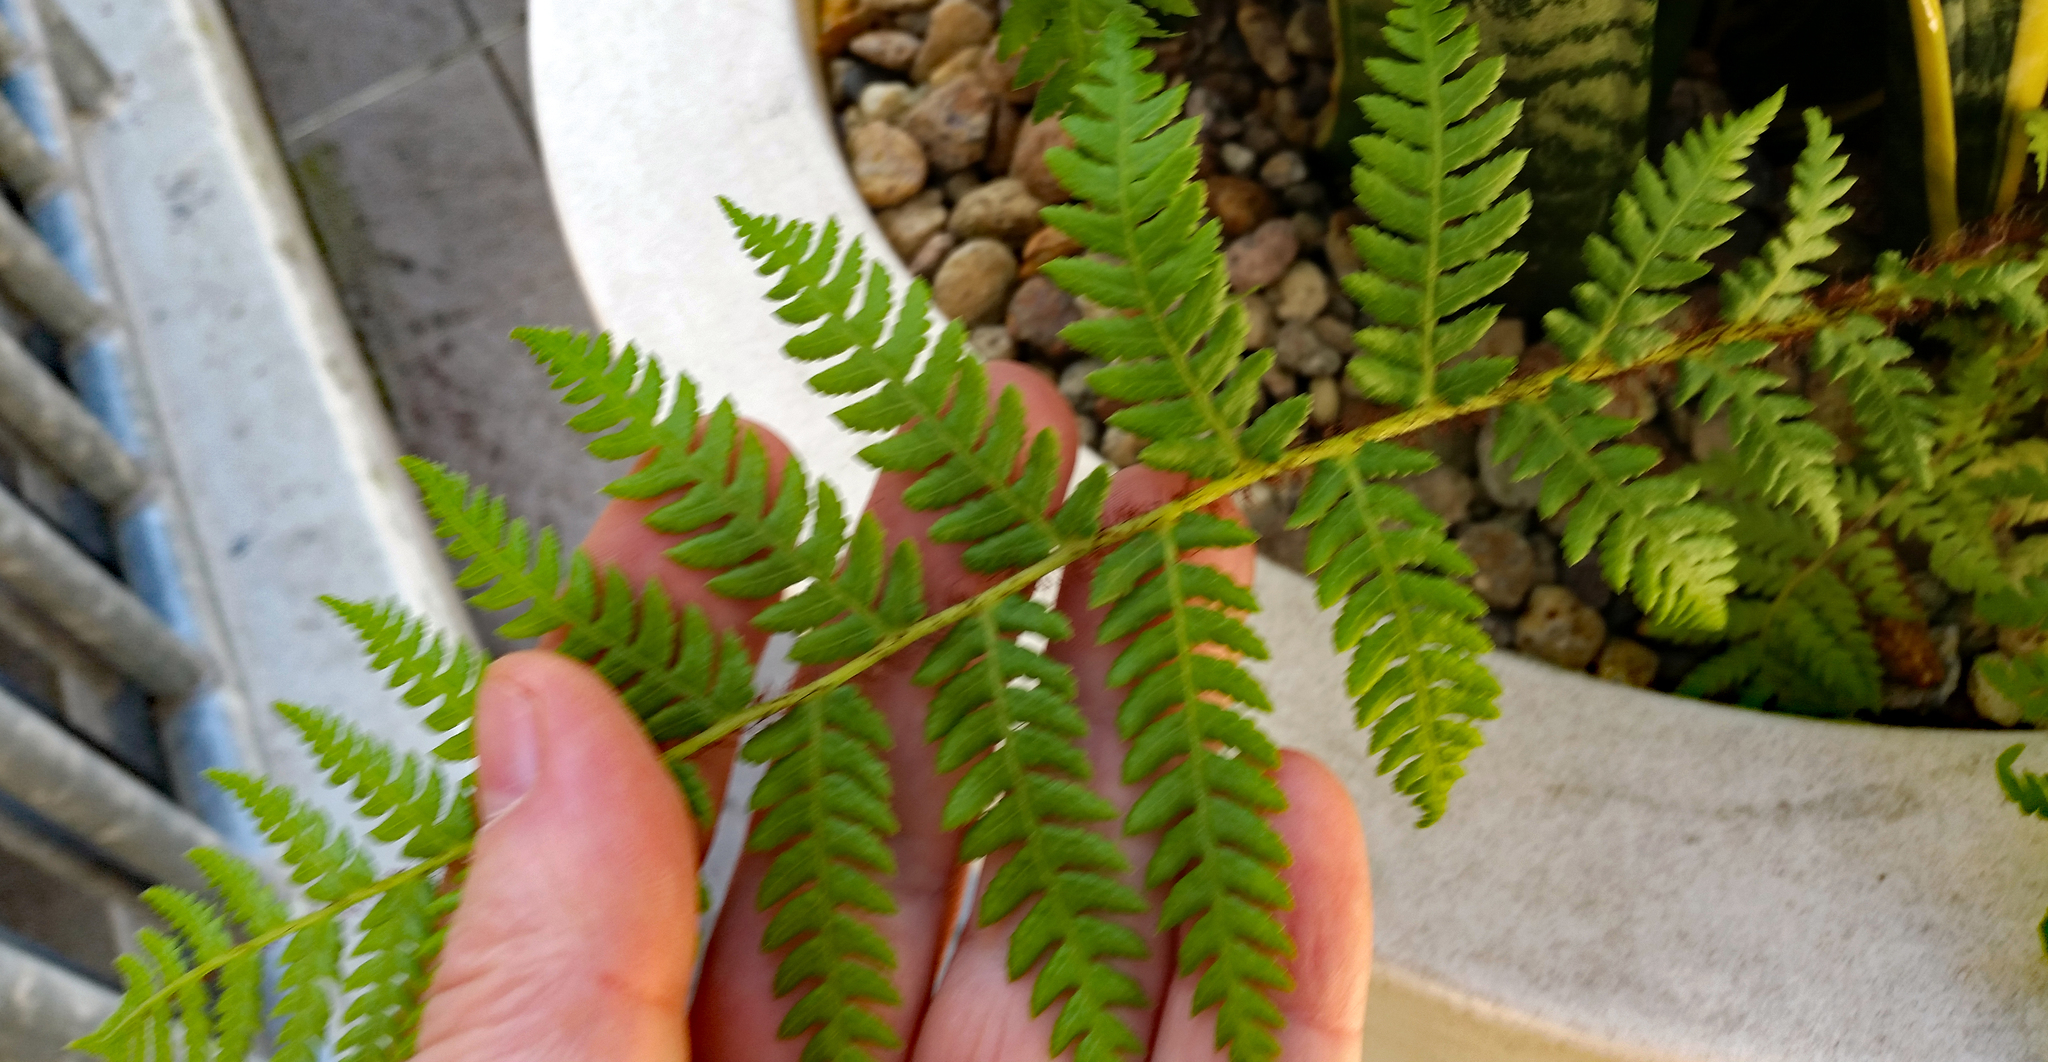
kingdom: Plantae
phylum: Tracheophyta
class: Polypodiopsida
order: Cyatheales
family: Cyatheaceae
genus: Sphaeropteris
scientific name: Sphaeropteris cooperi
